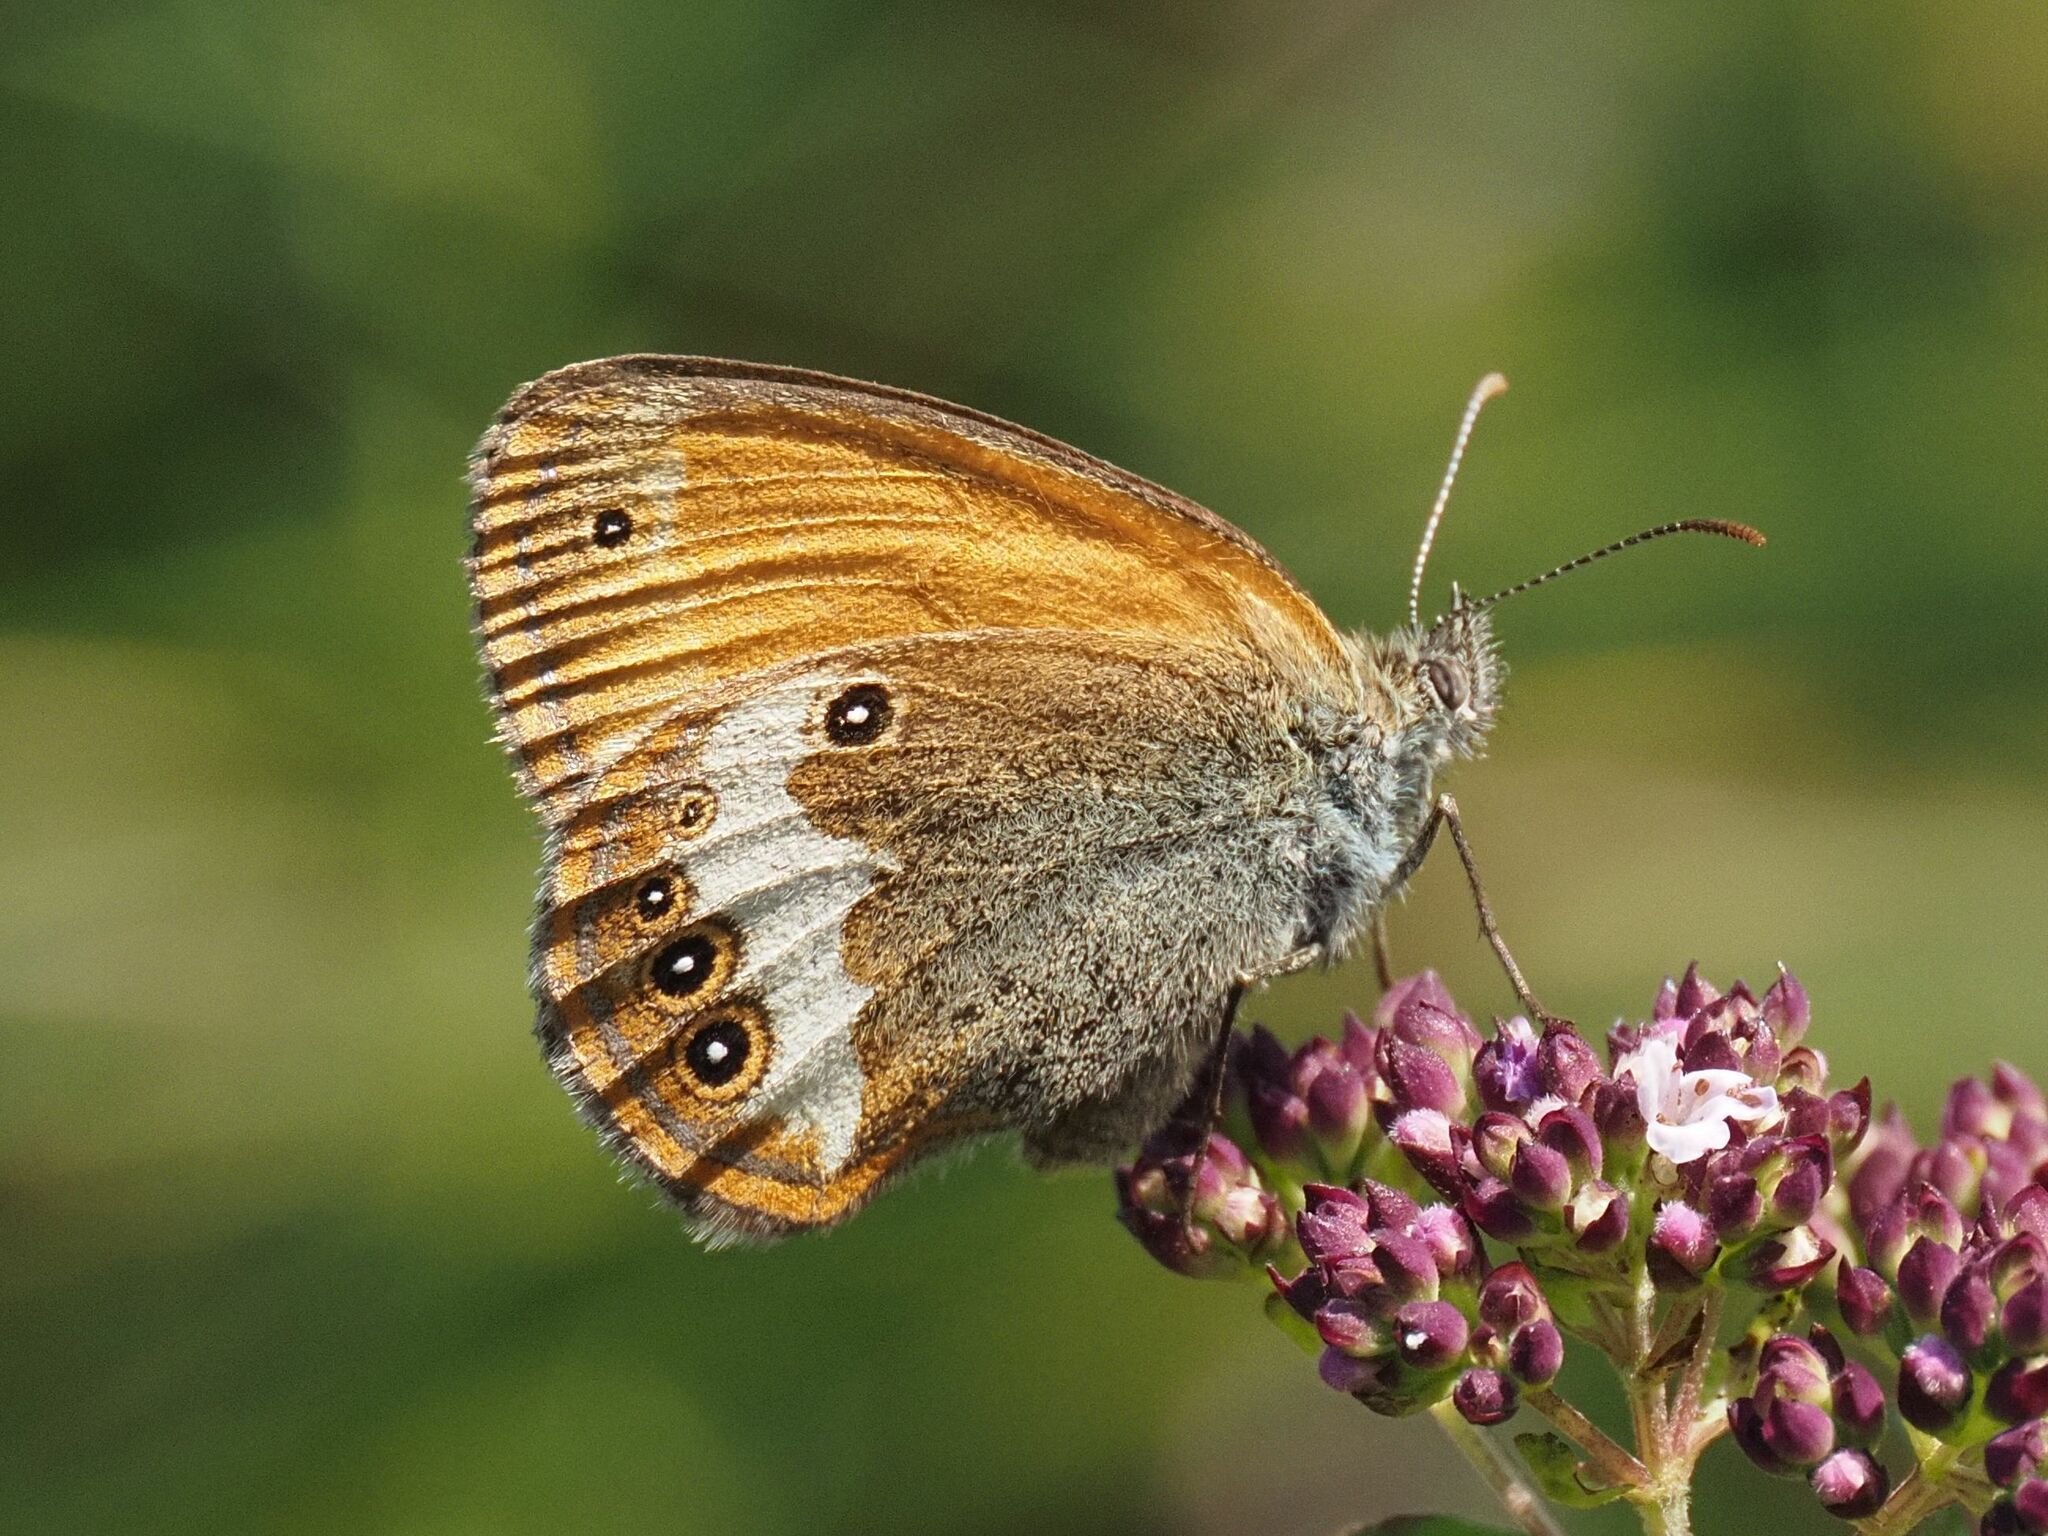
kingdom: Animalia
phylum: Arthropoda
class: Insecta
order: Lepidoptera
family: Nymphalidae
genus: Coenonympha
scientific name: Coenonympha arcania
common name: Pearly heath
